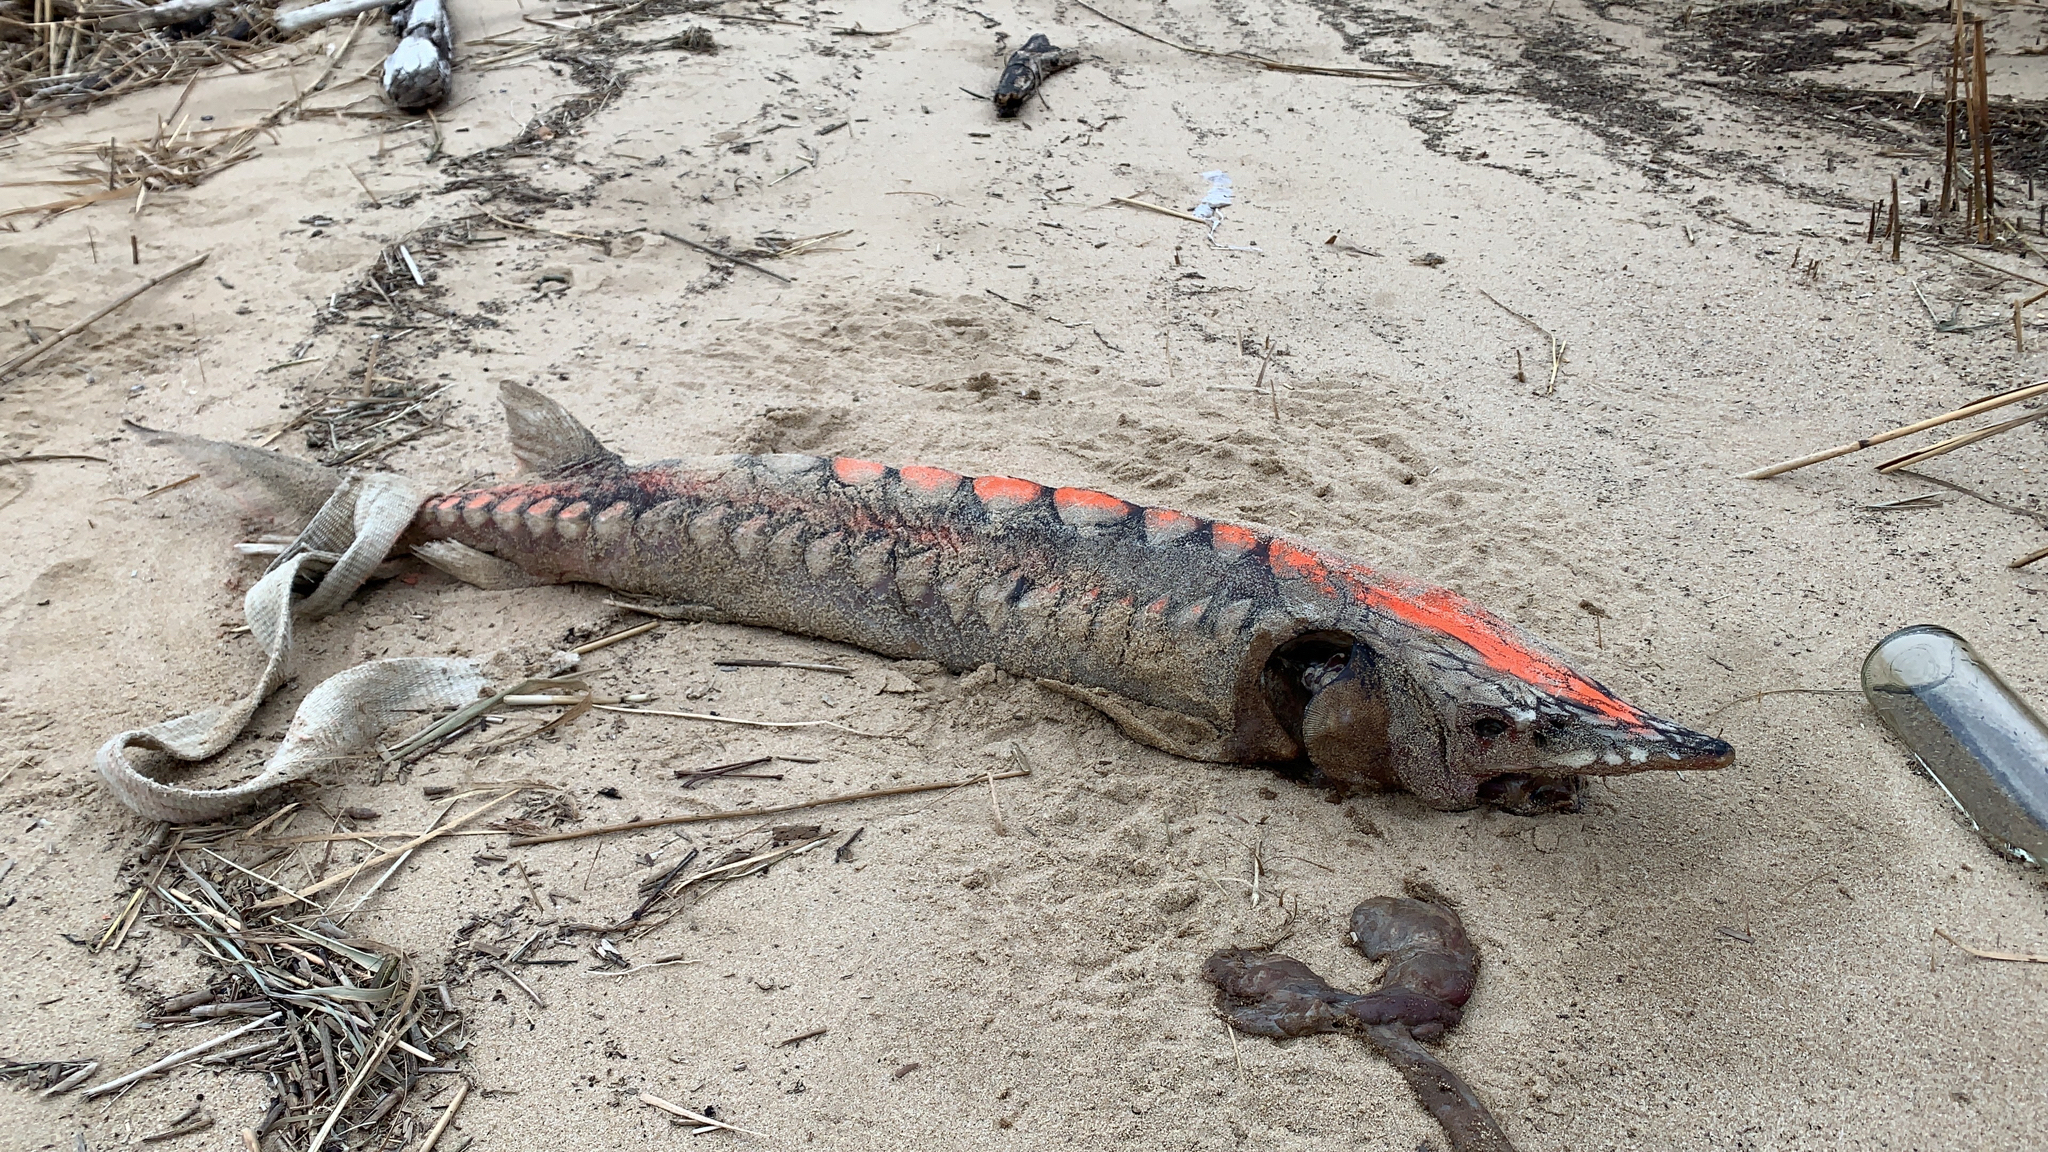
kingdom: Animalia
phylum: Chordata
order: Acipenseriformes
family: Acipenseridae
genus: Acipenser
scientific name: Acipenser oxyrinchus
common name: Atlantic sturgeon
